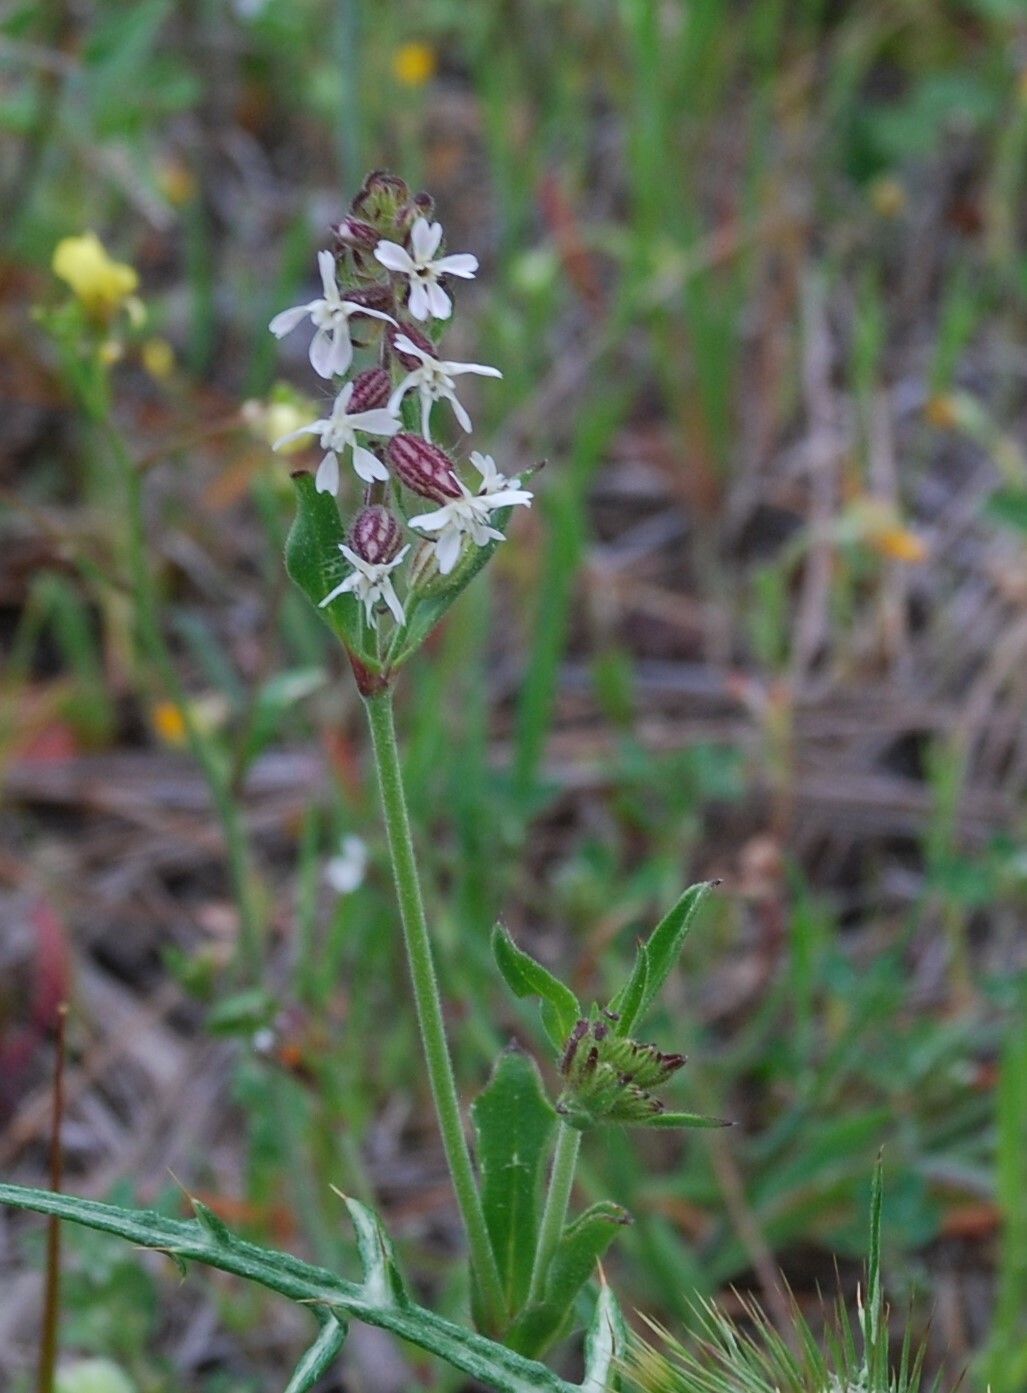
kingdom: Plantae
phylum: Tracheophyta
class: Magnoliopsida
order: Caryophyllales
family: Caryophyllaceae
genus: Silene
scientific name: Silene gallica
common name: Small-flowered catchfly
